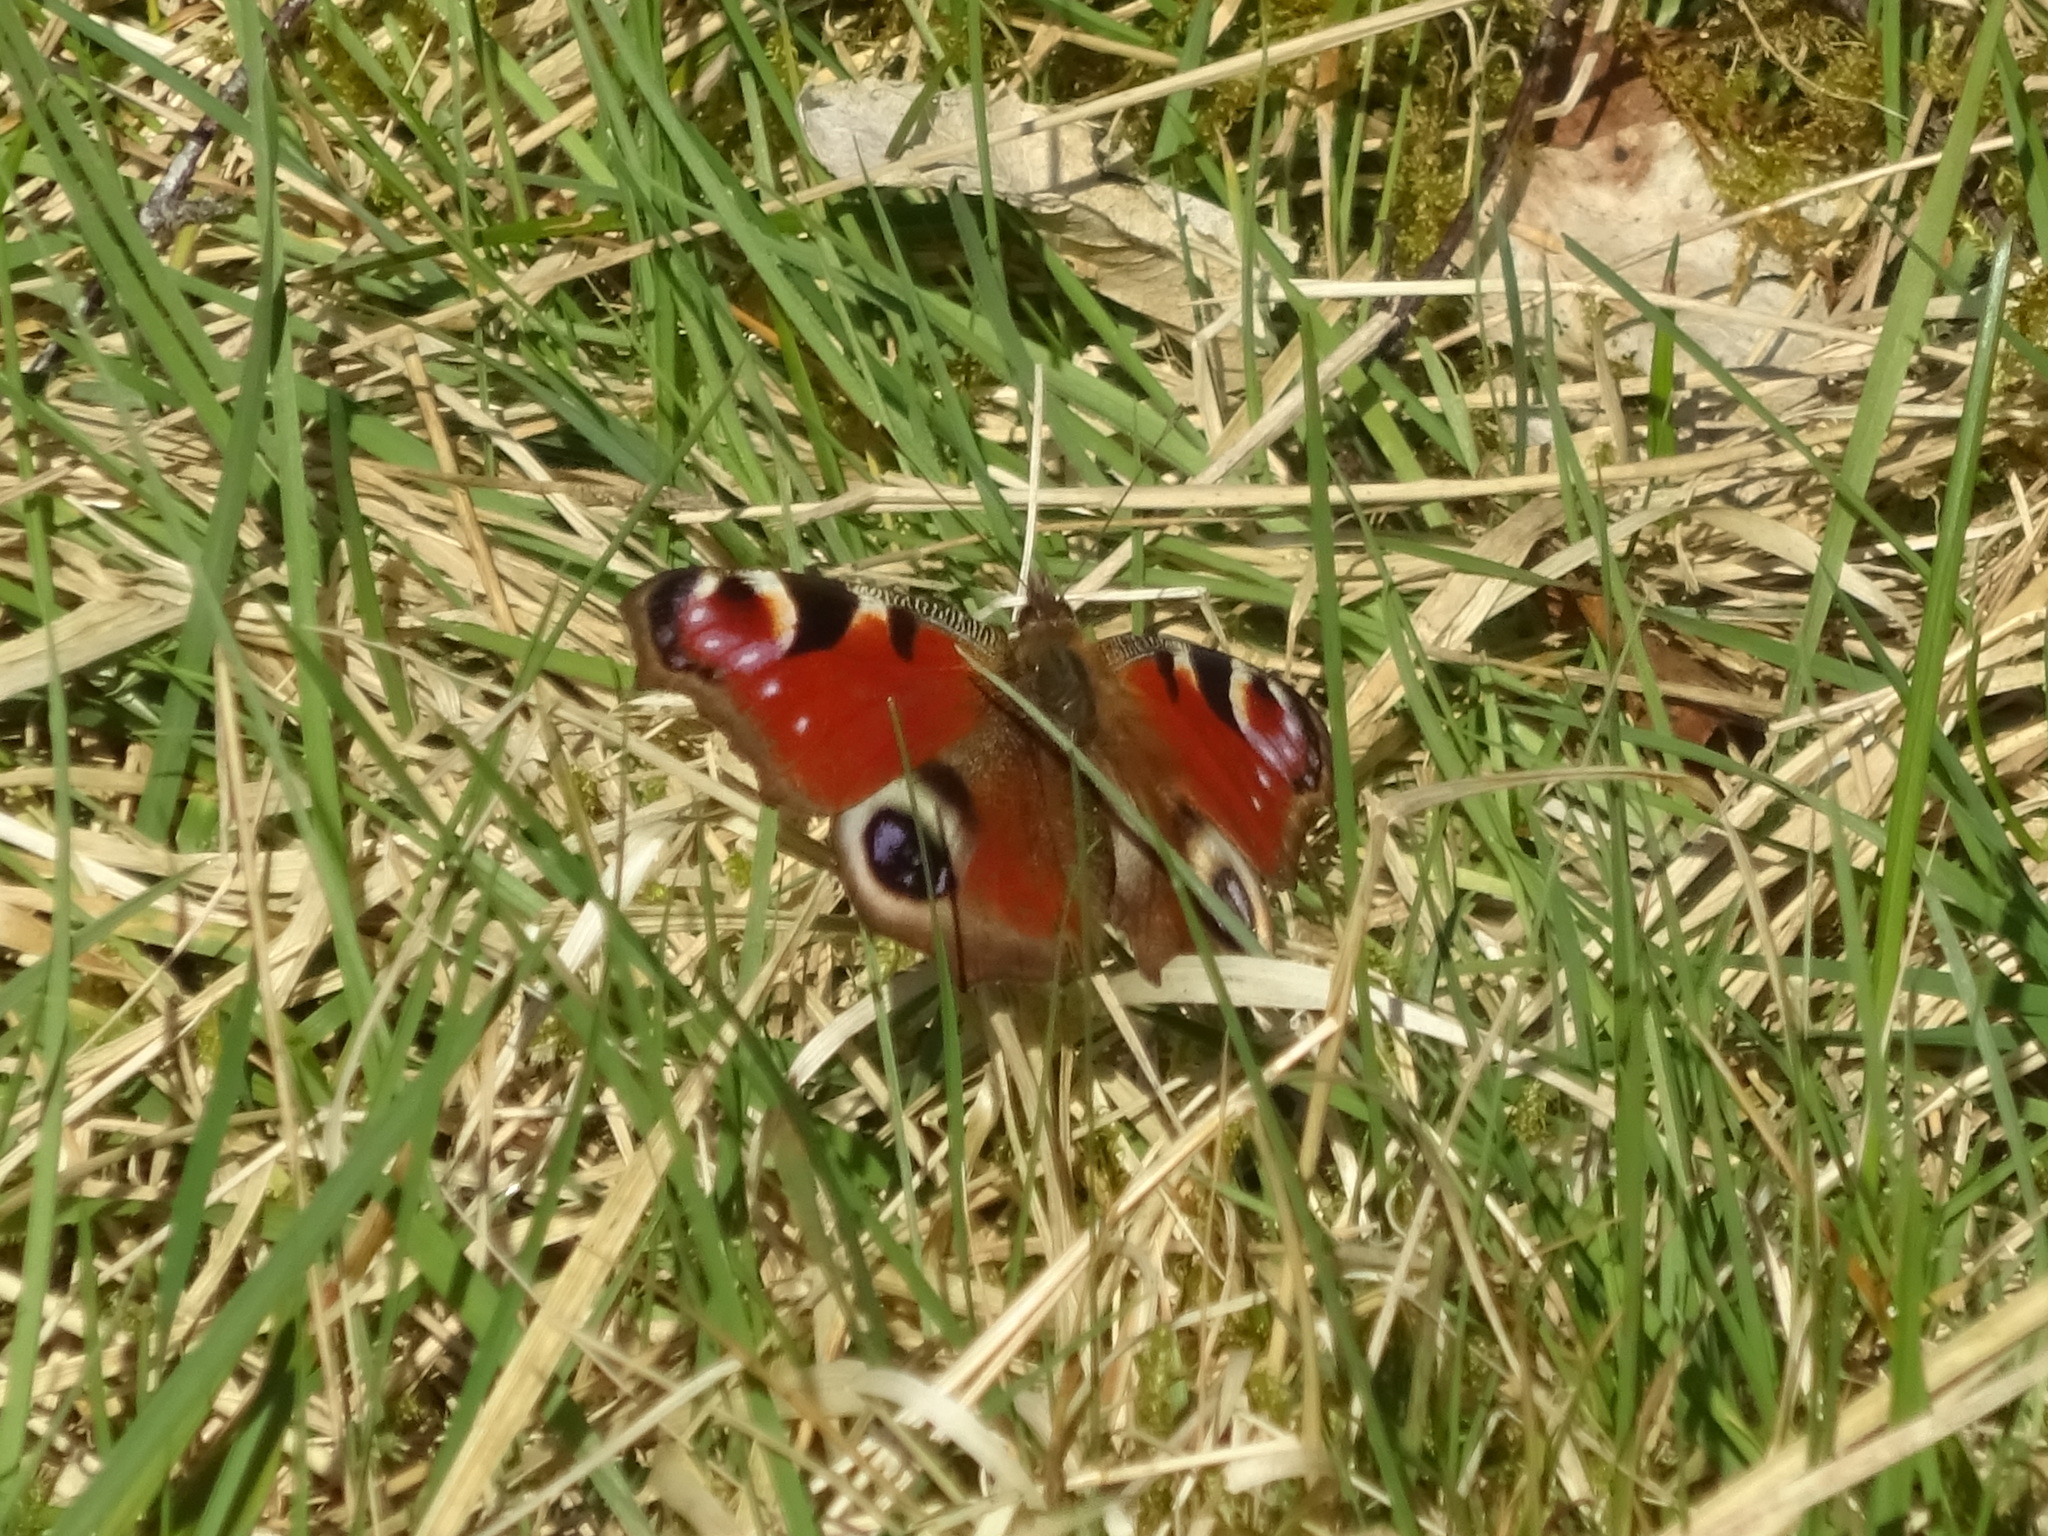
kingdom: Animalia
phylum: Arthropoda
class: Insecta
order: Lepidoptera
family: Nymphalidae
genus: Aglais
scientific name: Aglais io
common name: Peacock
